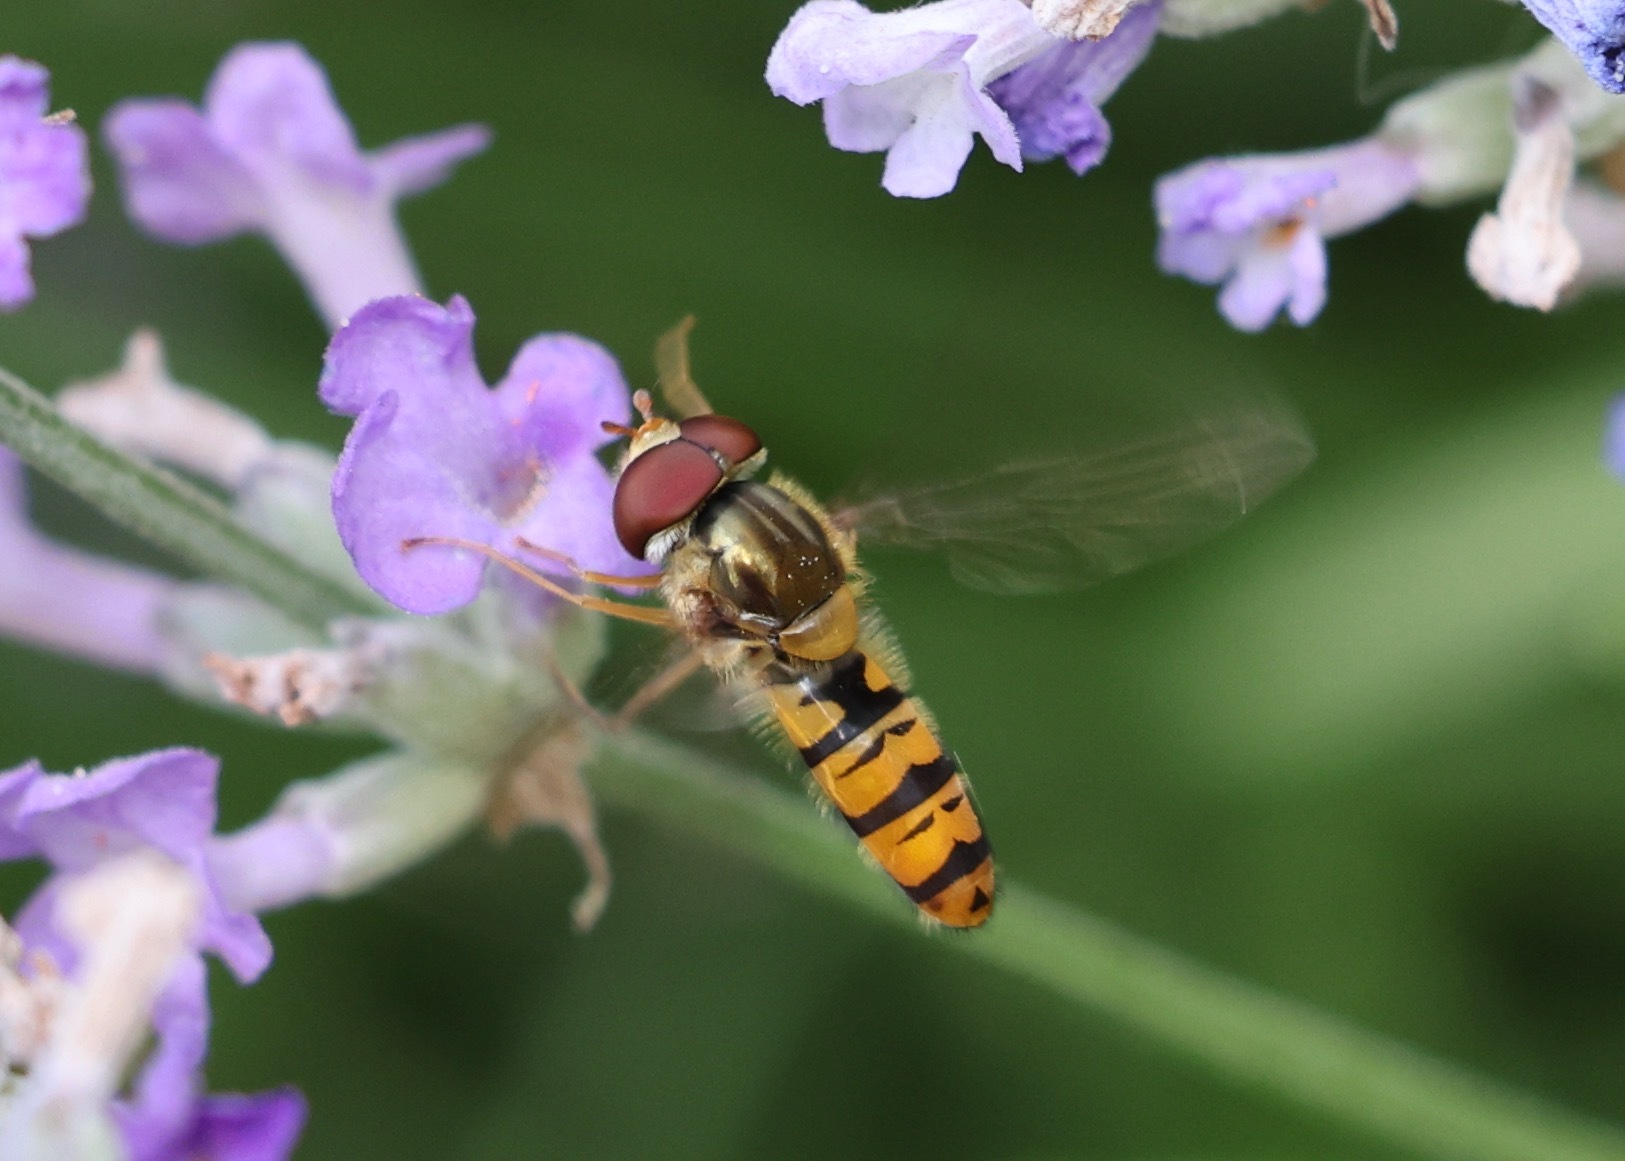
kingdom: Animalia
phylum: Arthropoda
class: Insecta
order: Diptera
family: Syrphidae
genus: Episyrphus
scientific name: Episyrphus balteatus
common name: Marmalade hoverfly
